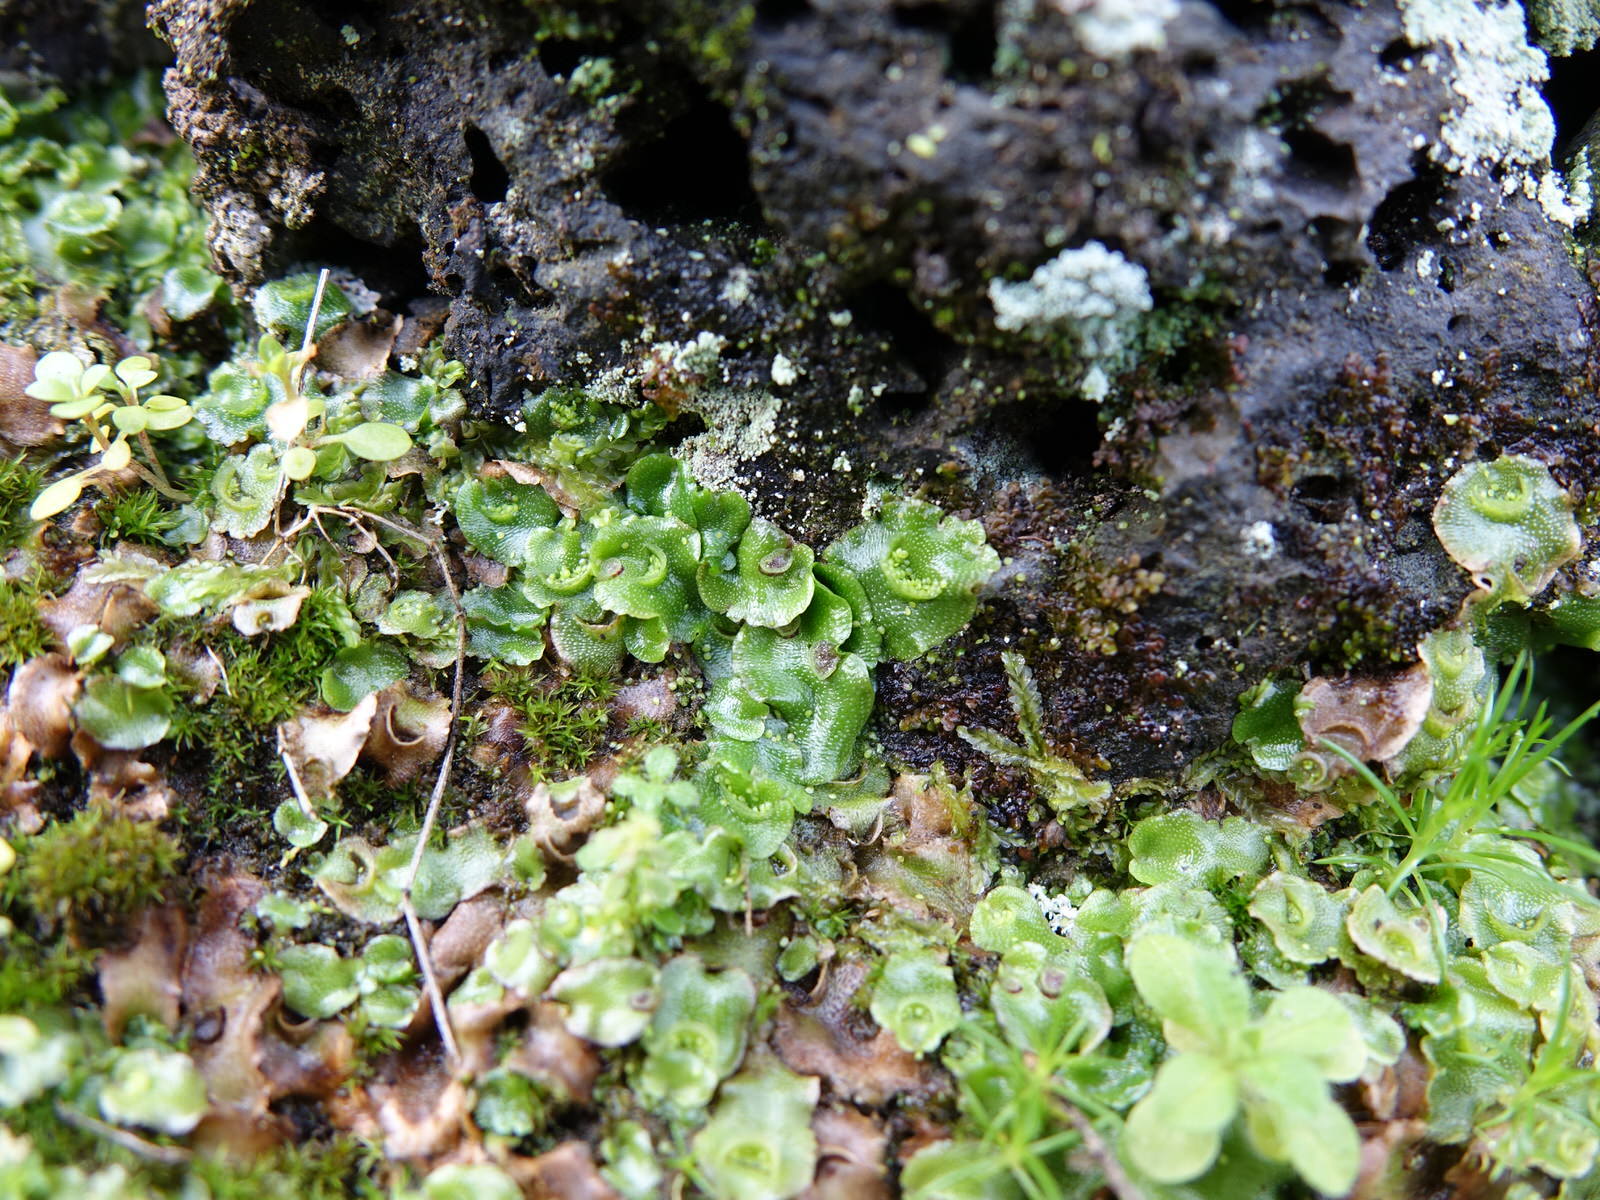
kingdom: Plantae
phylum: Marchantiophyta
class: Marchantiopsida
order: Lunulariales
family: Lunulariaceae
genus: Lunularia
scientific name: Lunularia cruciata
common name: Crescent-cup liverwort
